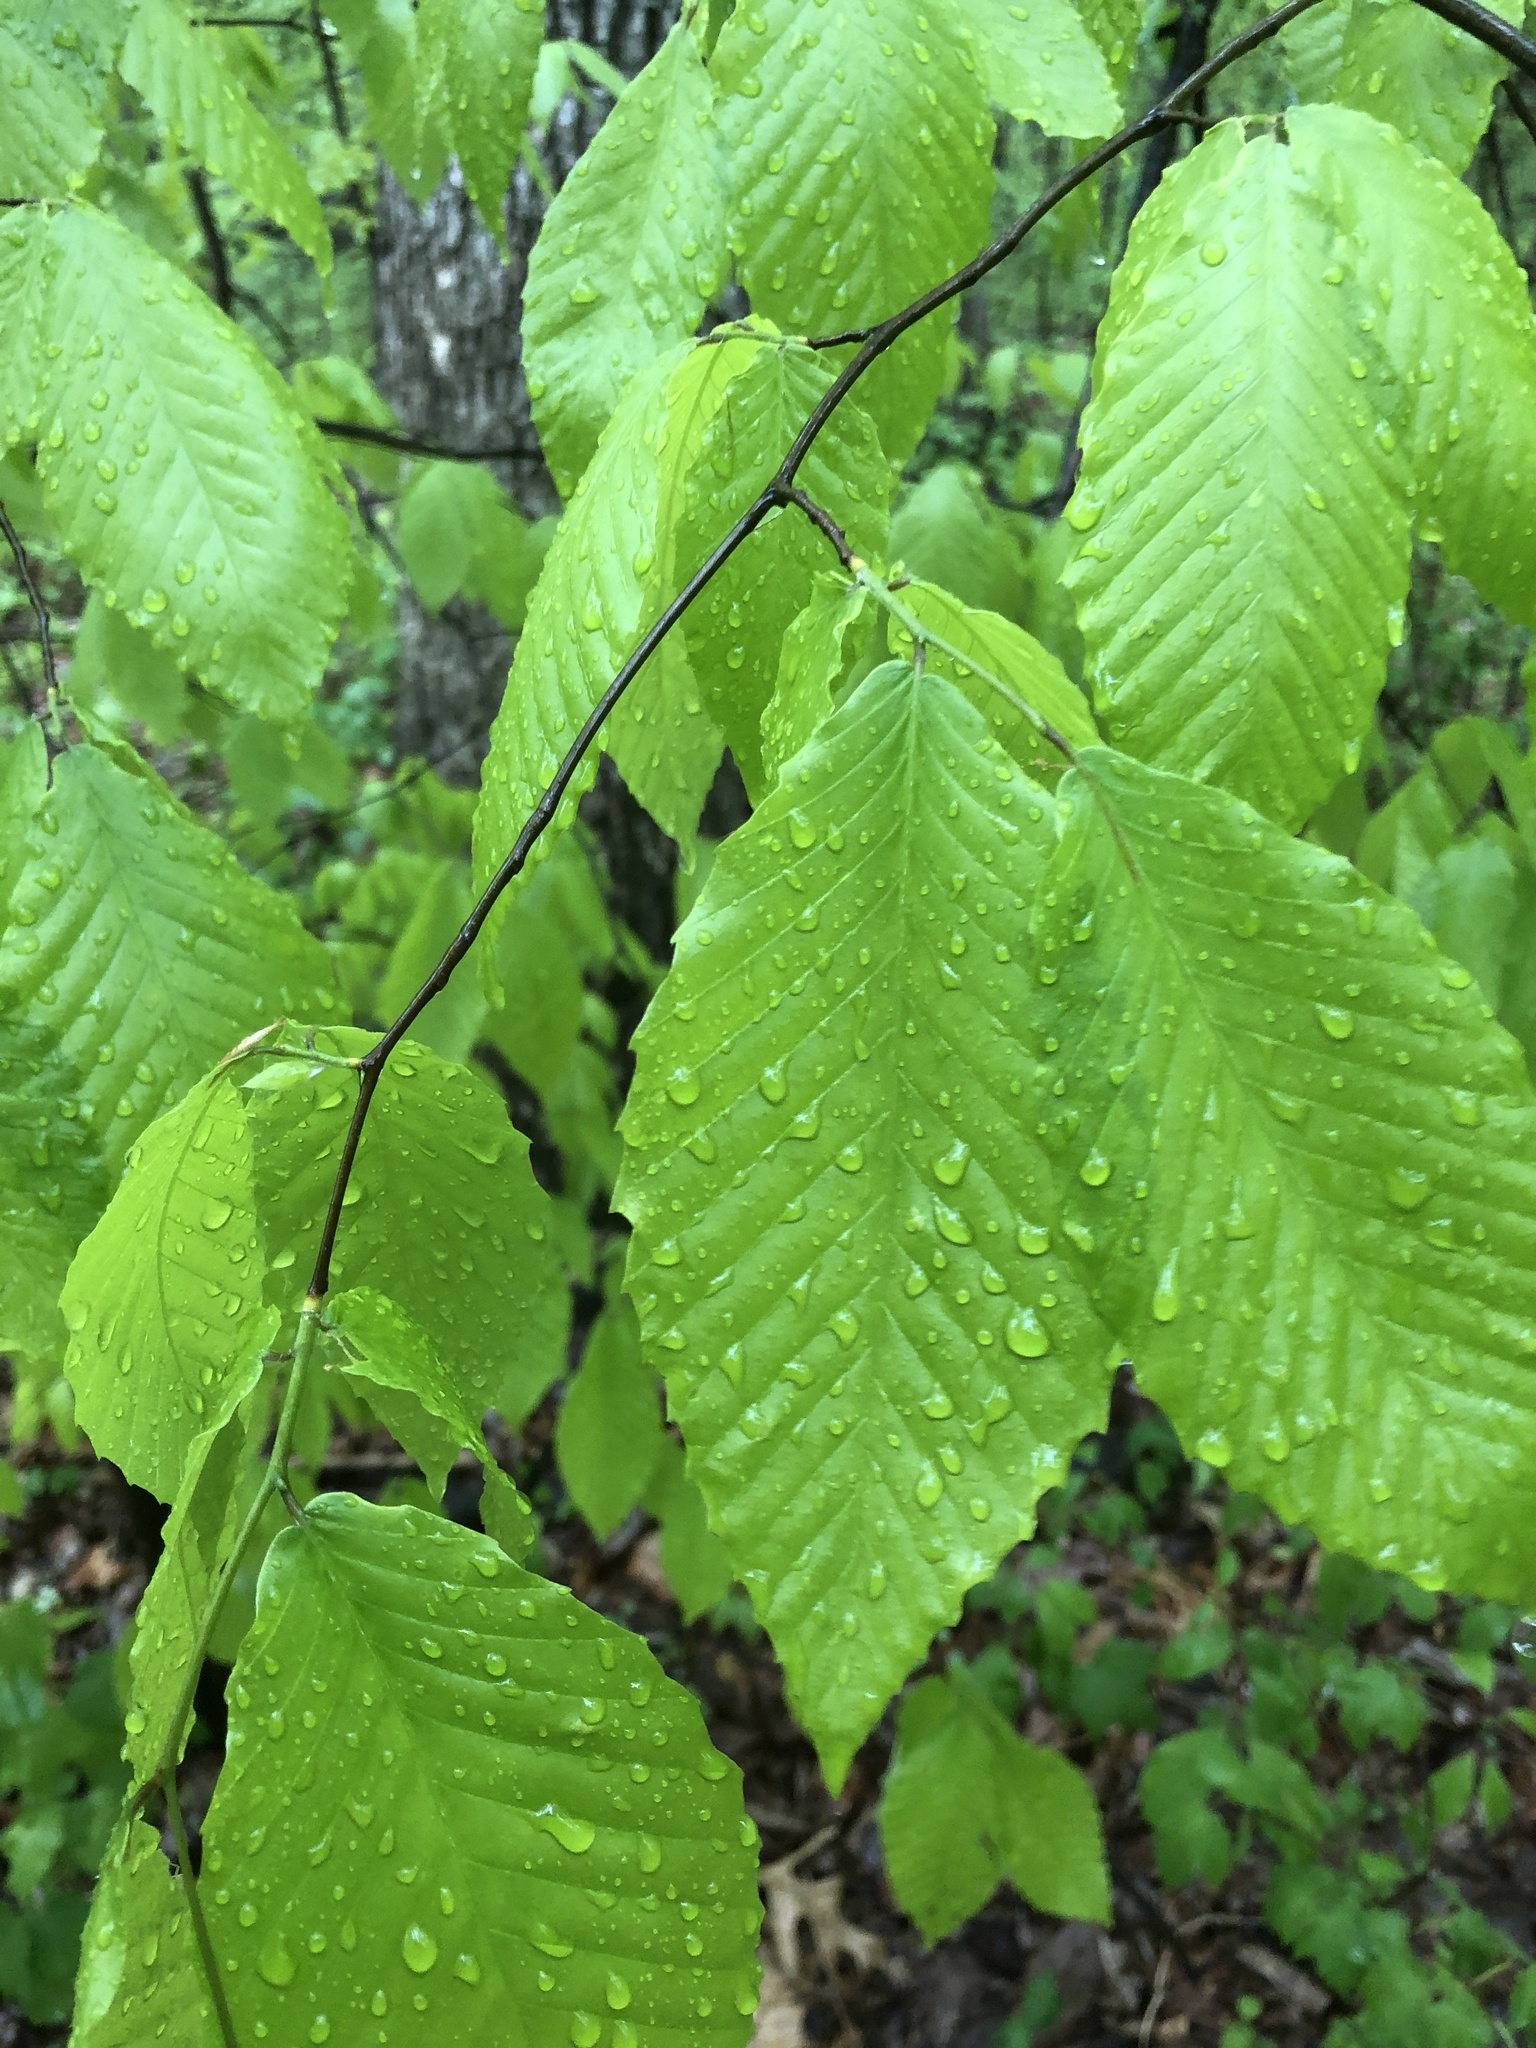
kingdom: Plantae
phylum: Tracheophyta
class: Magnoliopsida
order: Fagales
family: Fagaceae
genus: Fagus
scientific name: Fagus grandifolia
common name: American beech
